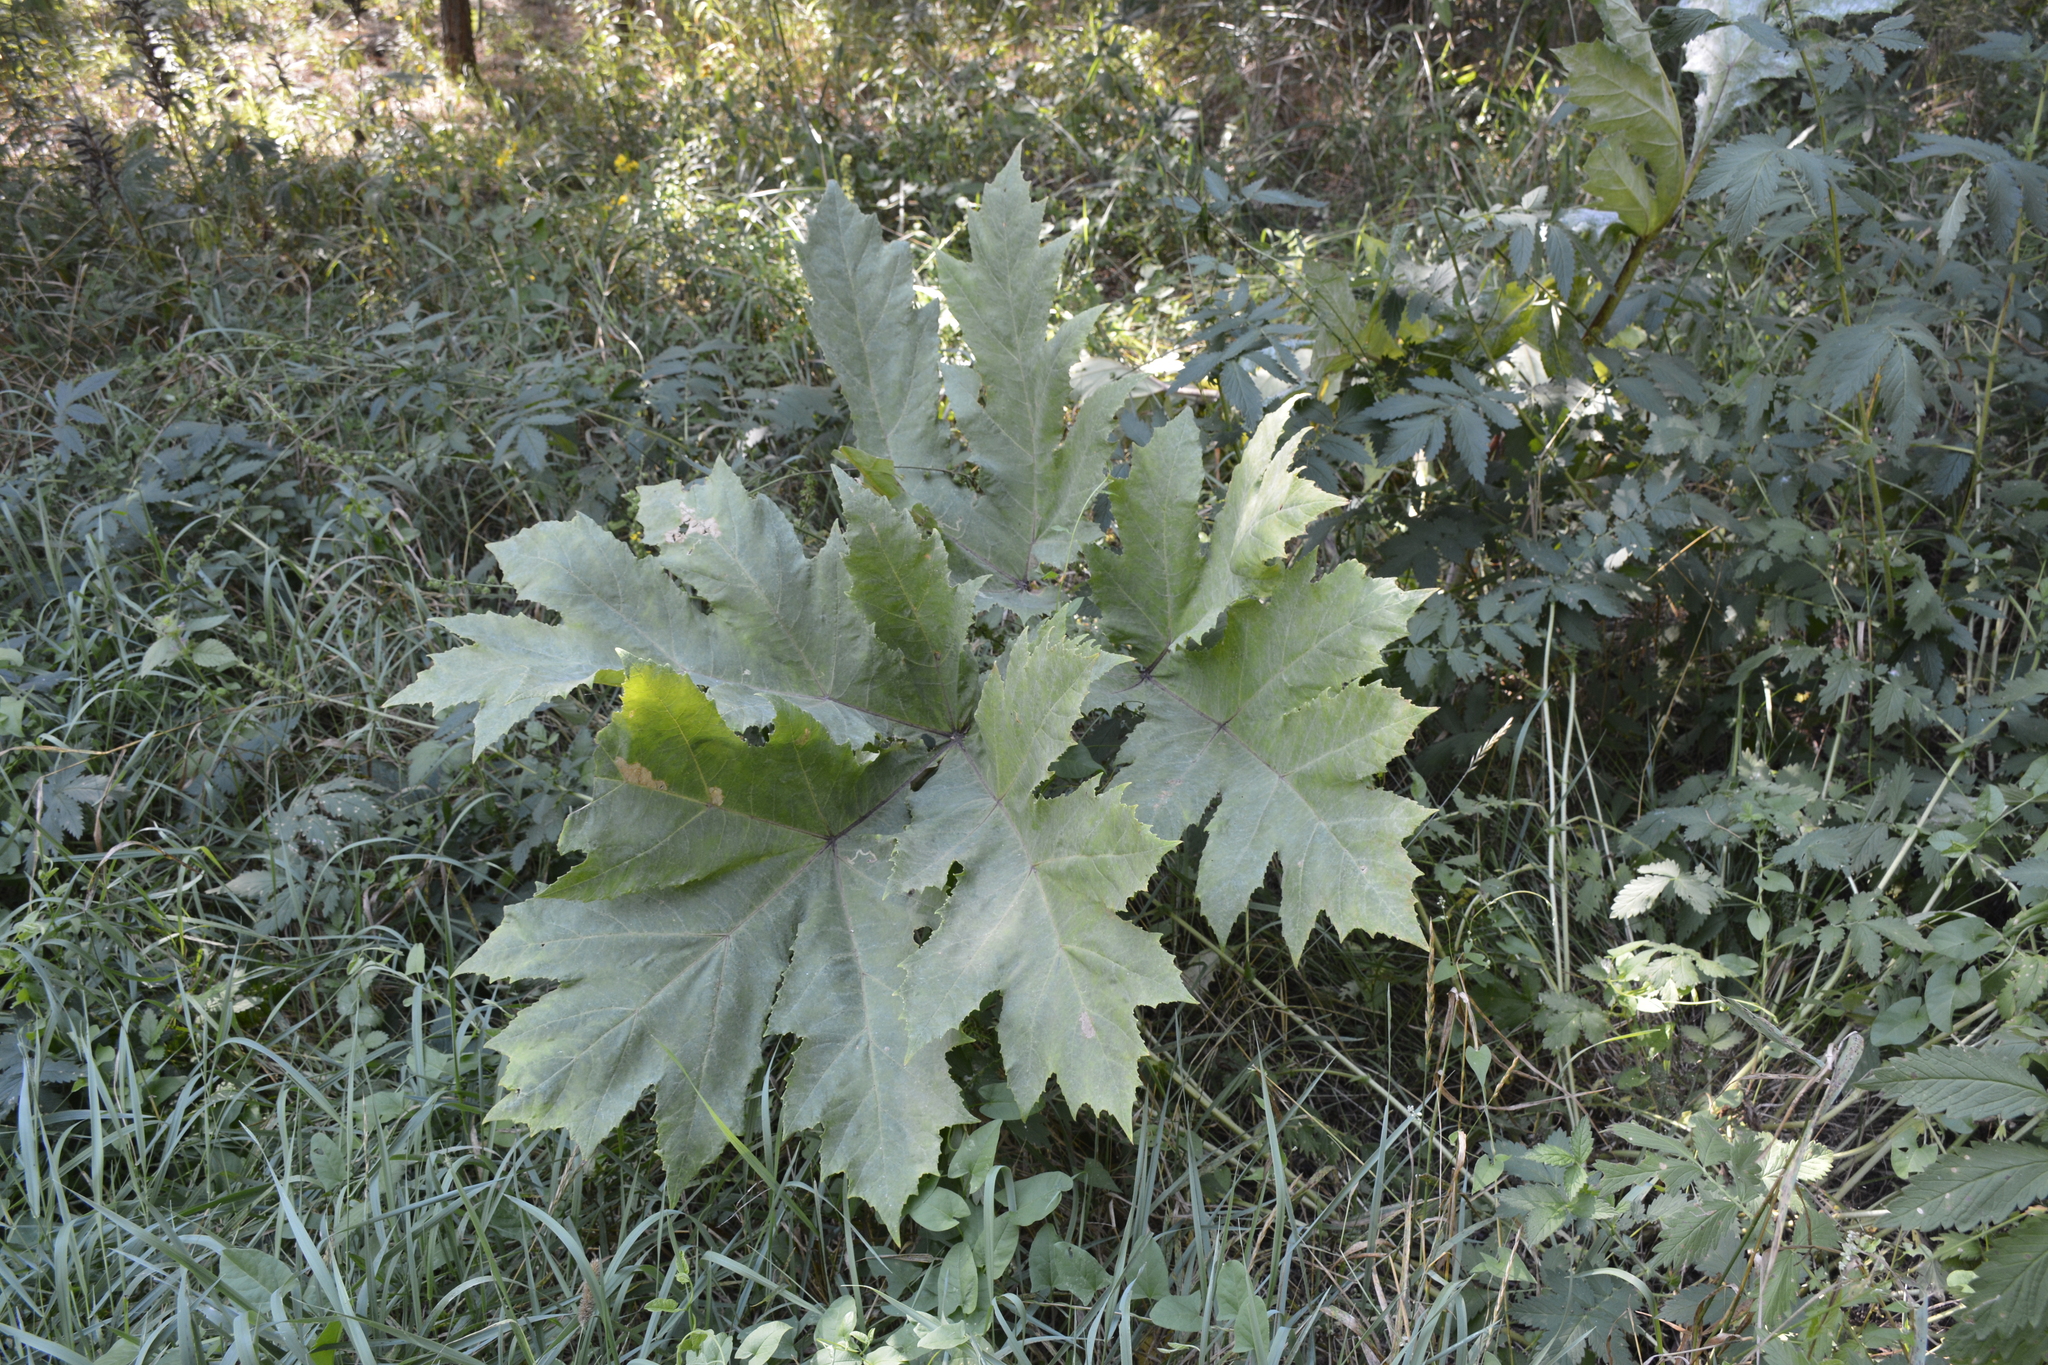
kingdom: Plantae
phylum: Tracheophyta
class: Magnoliopsida
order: Apiales
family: Apiaceae
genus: Heracleum
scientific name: Heracleum sosnowskyi
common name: Sosnowsky's hogweed
